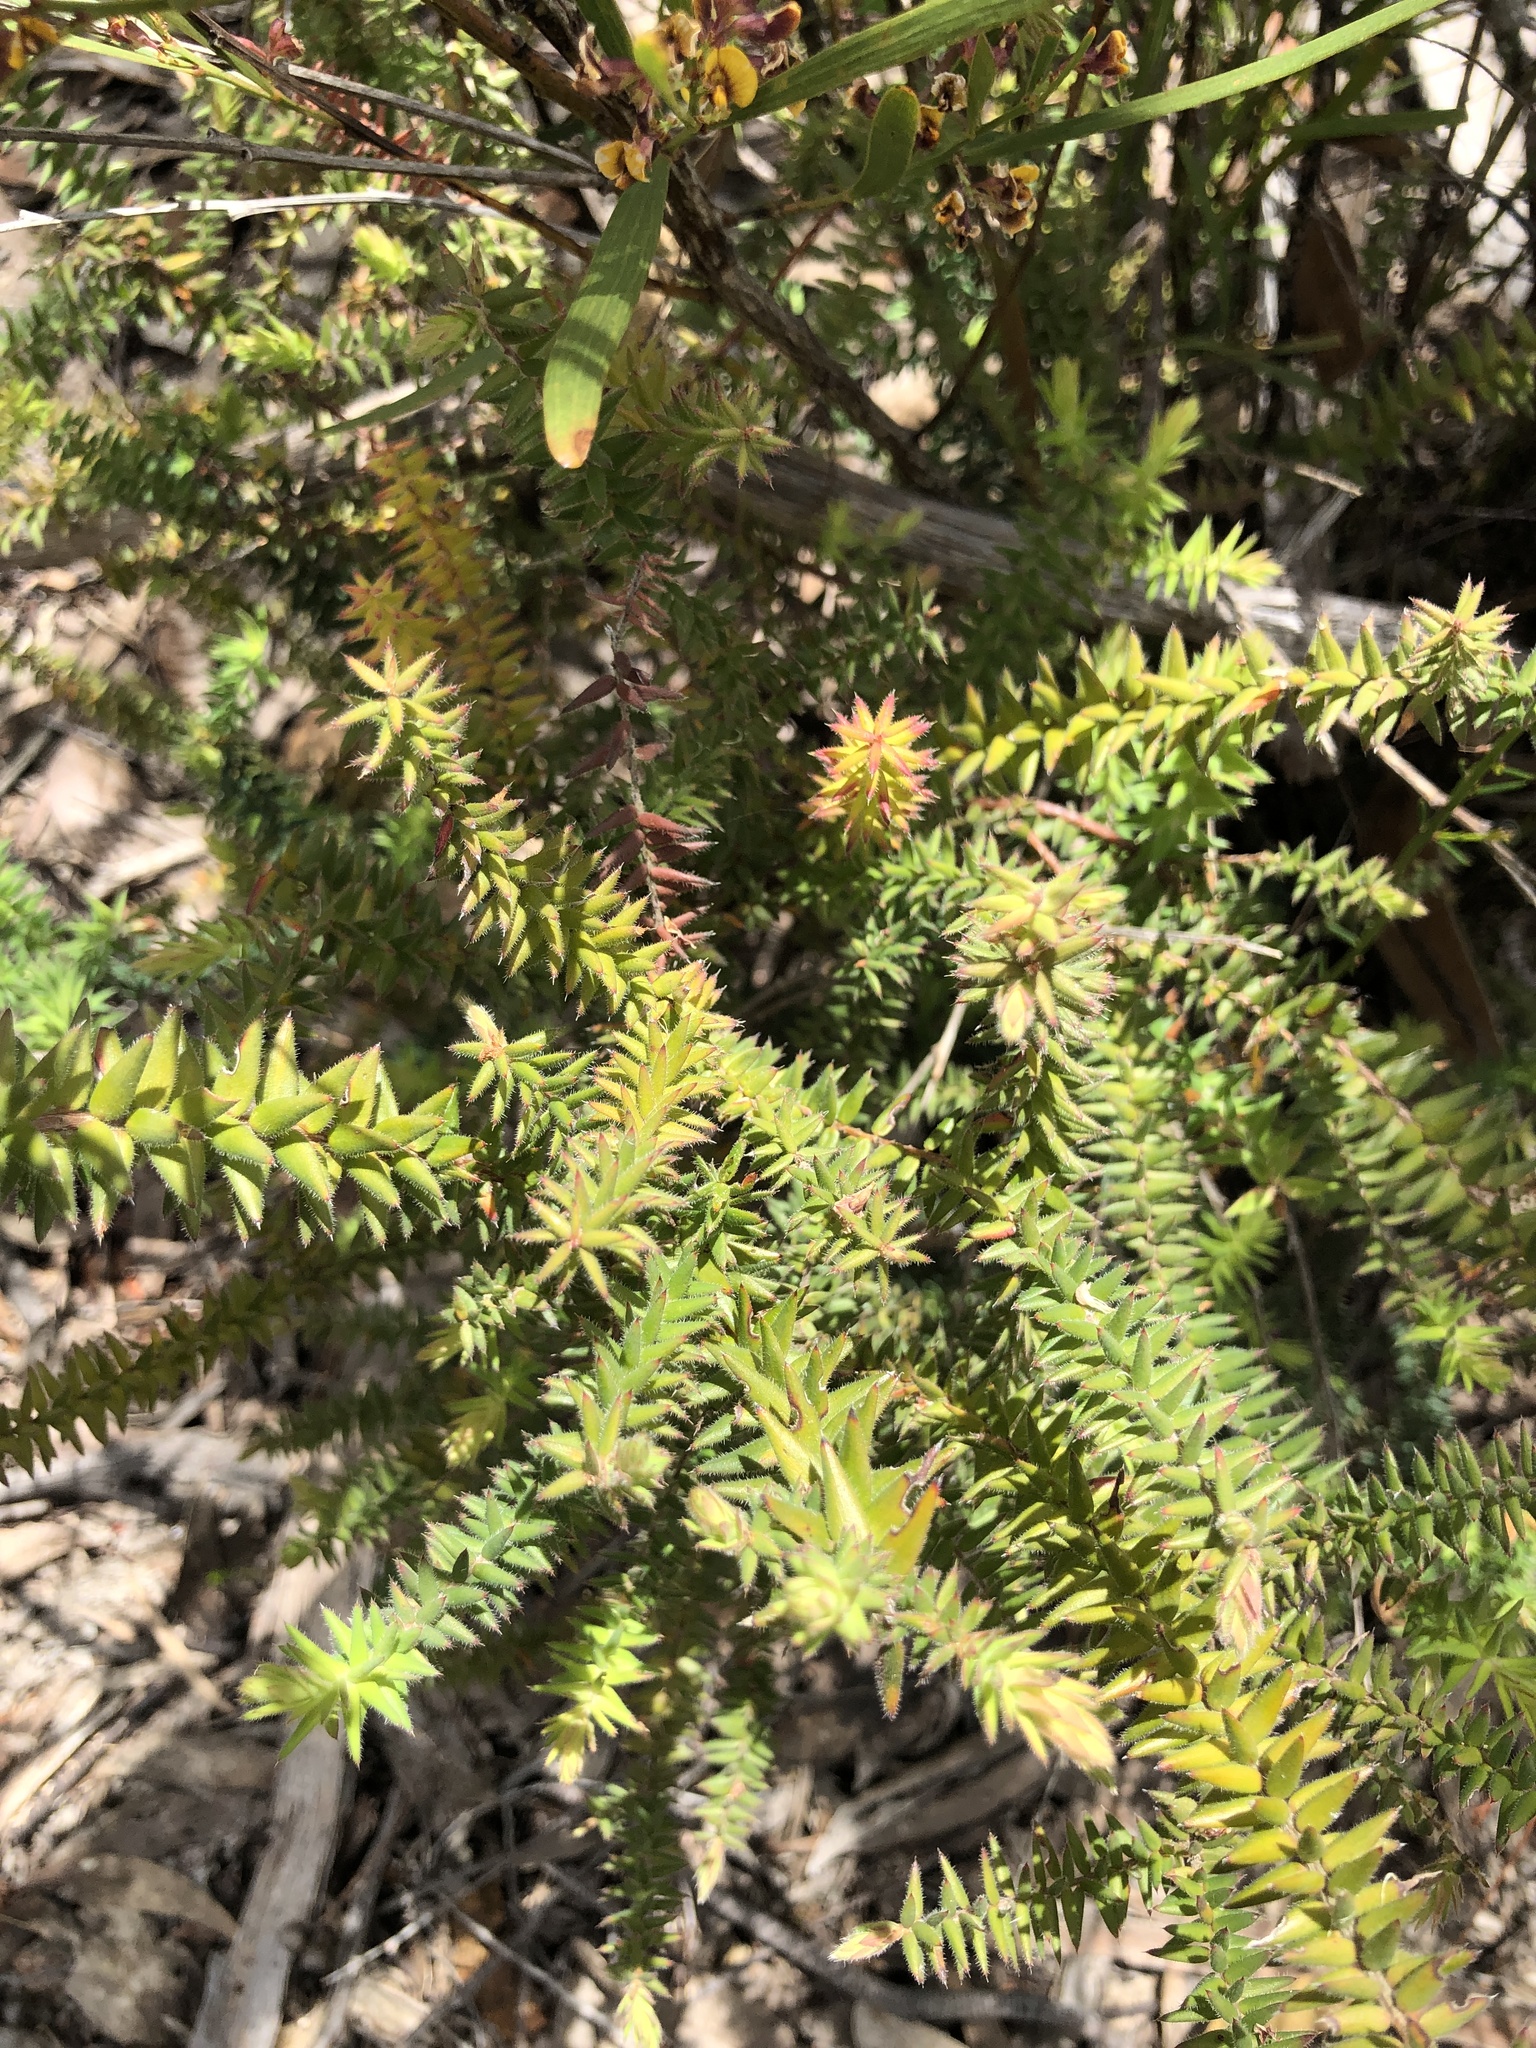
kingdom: Plantae
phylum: Tracheophyta
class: Magnoliopsida
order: Ericales
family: Ericaceae
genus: Acrotriche
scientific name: Acrotriche fasciculiflora
